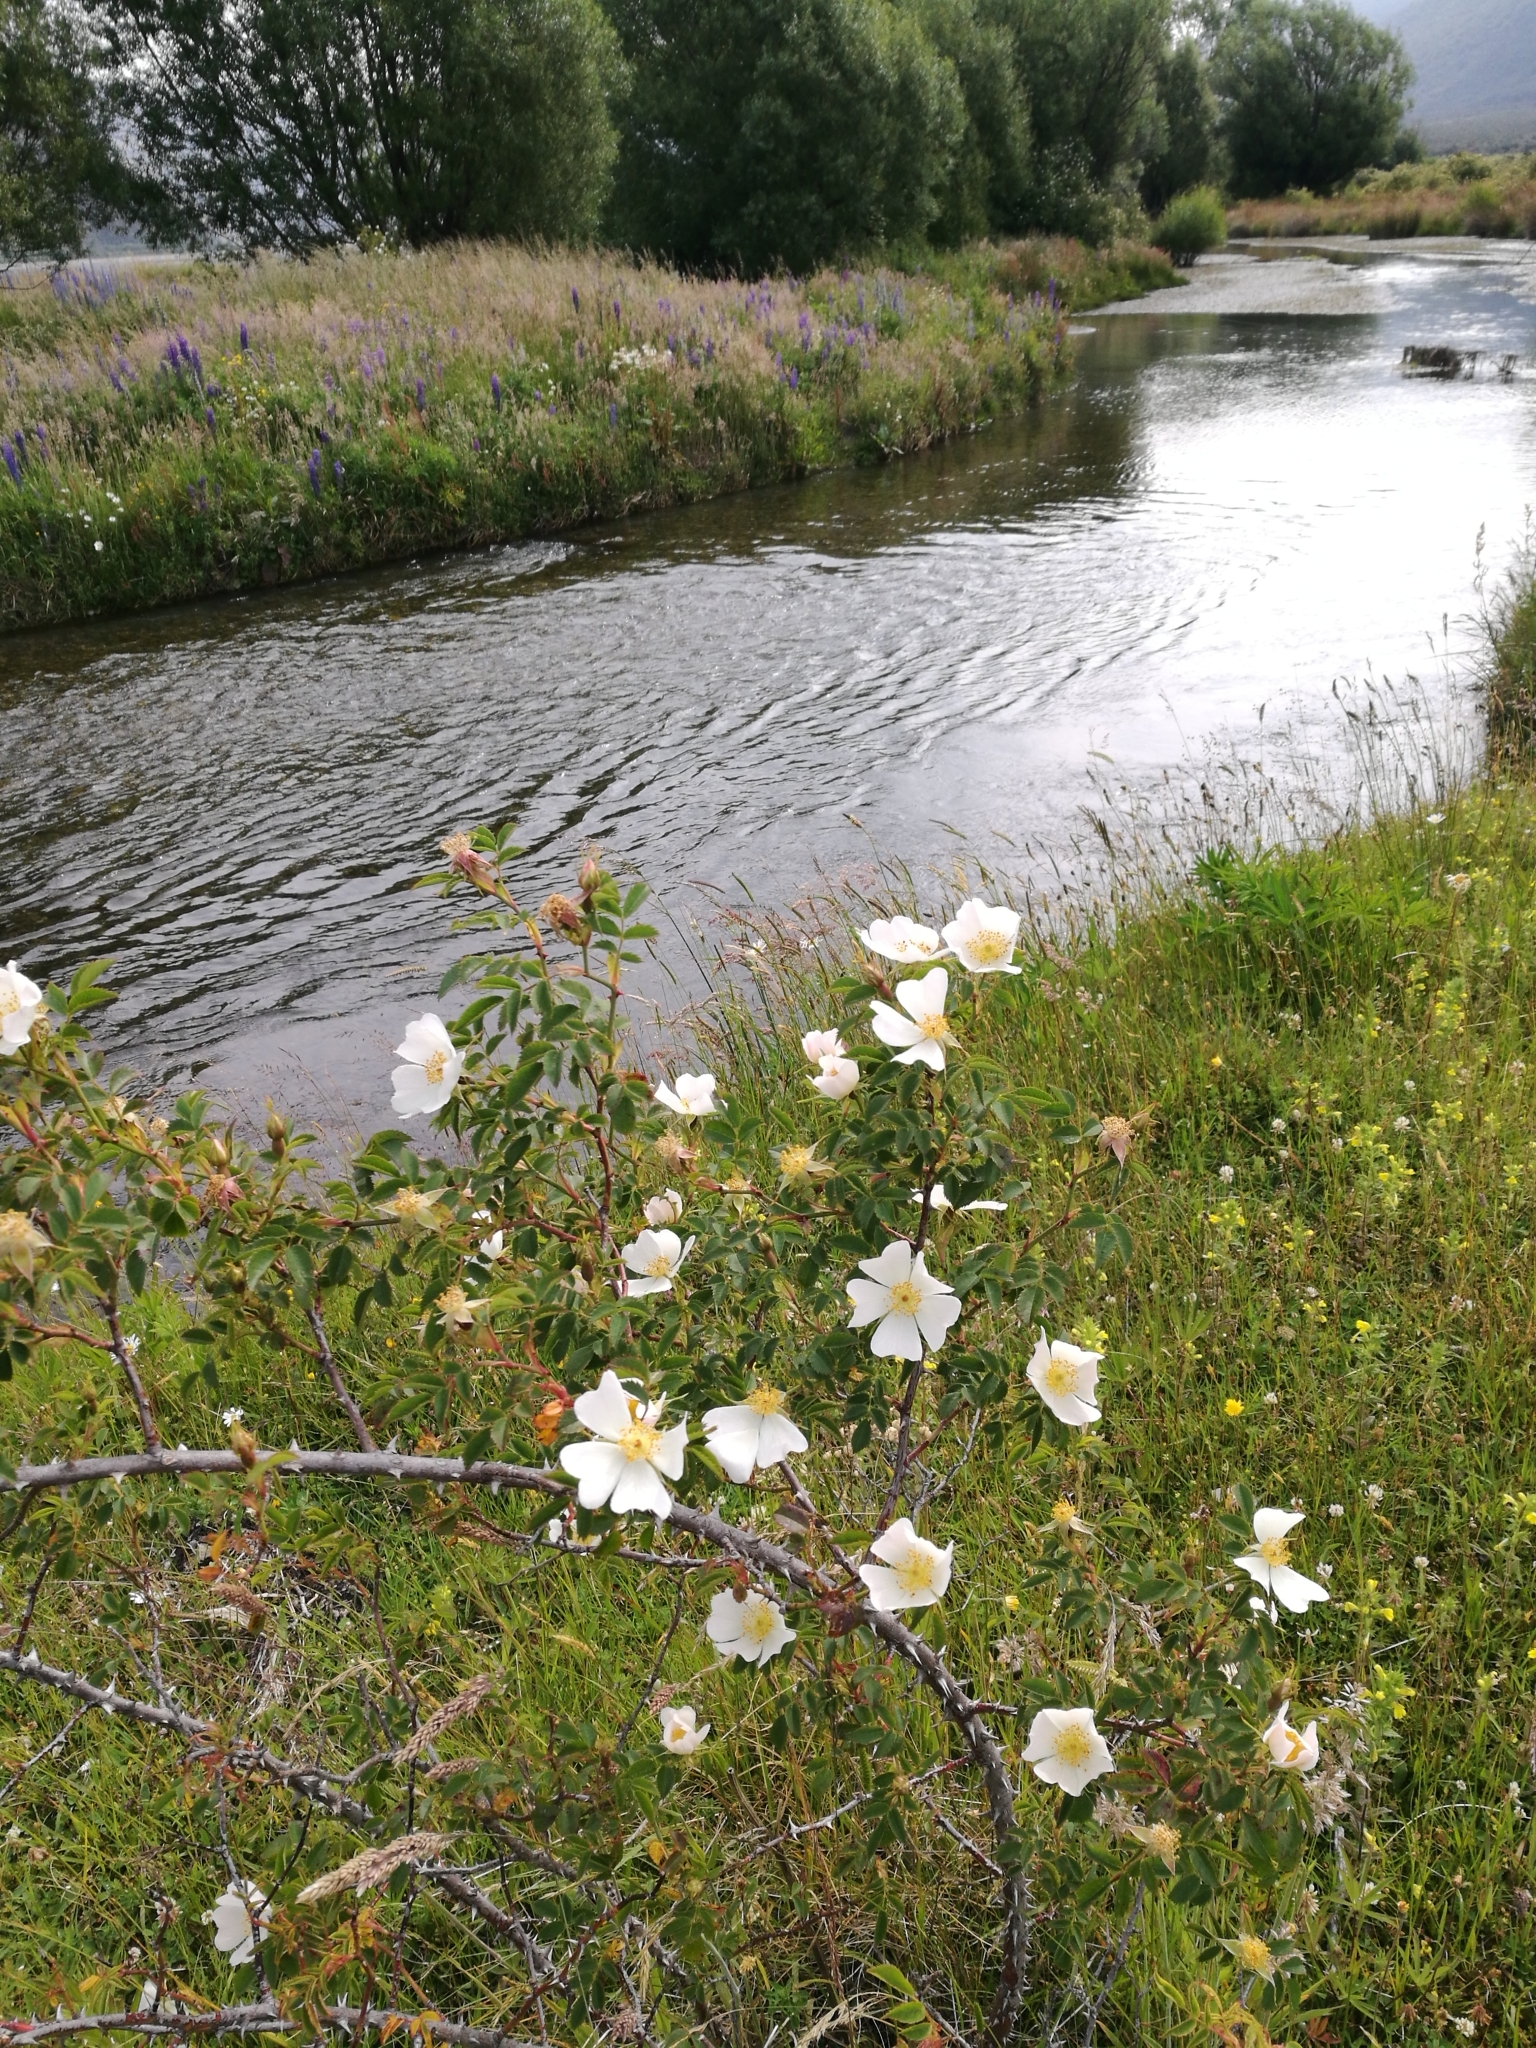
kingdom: Plantae
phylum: Tracheophyta
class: Magnoliopsida
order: Rosales
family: Rosaceae
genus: Rosa
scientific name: Rosa rubiginosa
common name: Sweet-briar
